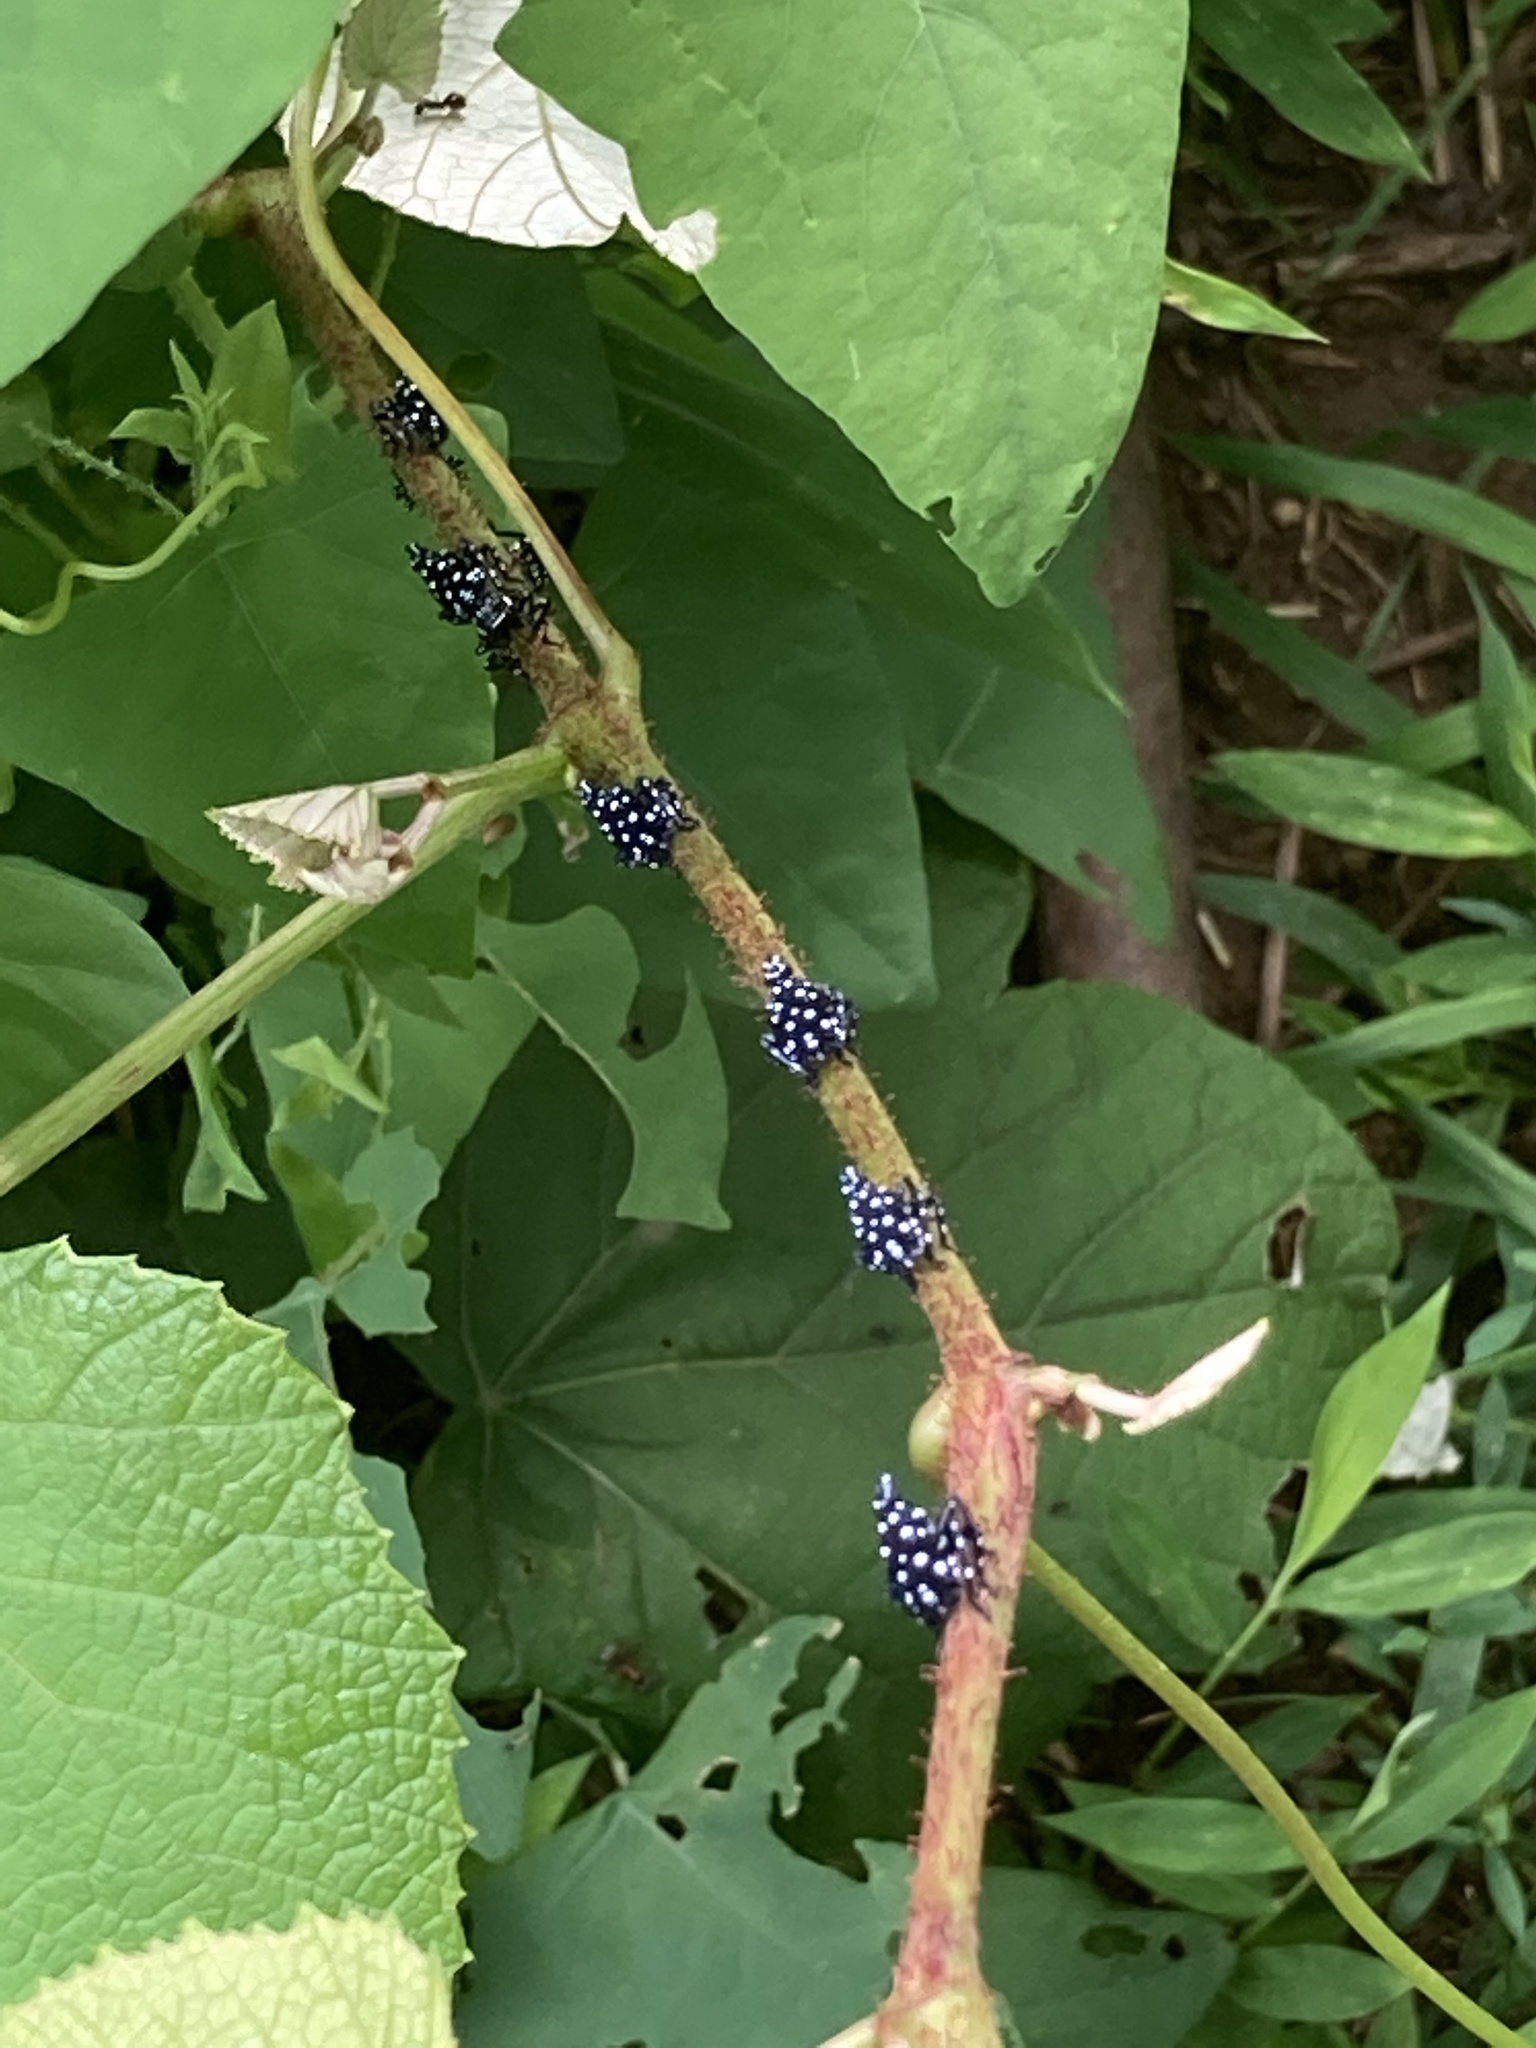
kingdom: Animalia
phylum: Arthropoda
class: Insecta
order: Hemiptera
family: Fulgoridae
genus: Lycorma
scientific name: Lycorma delicatula
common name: Spotted lanternfly
